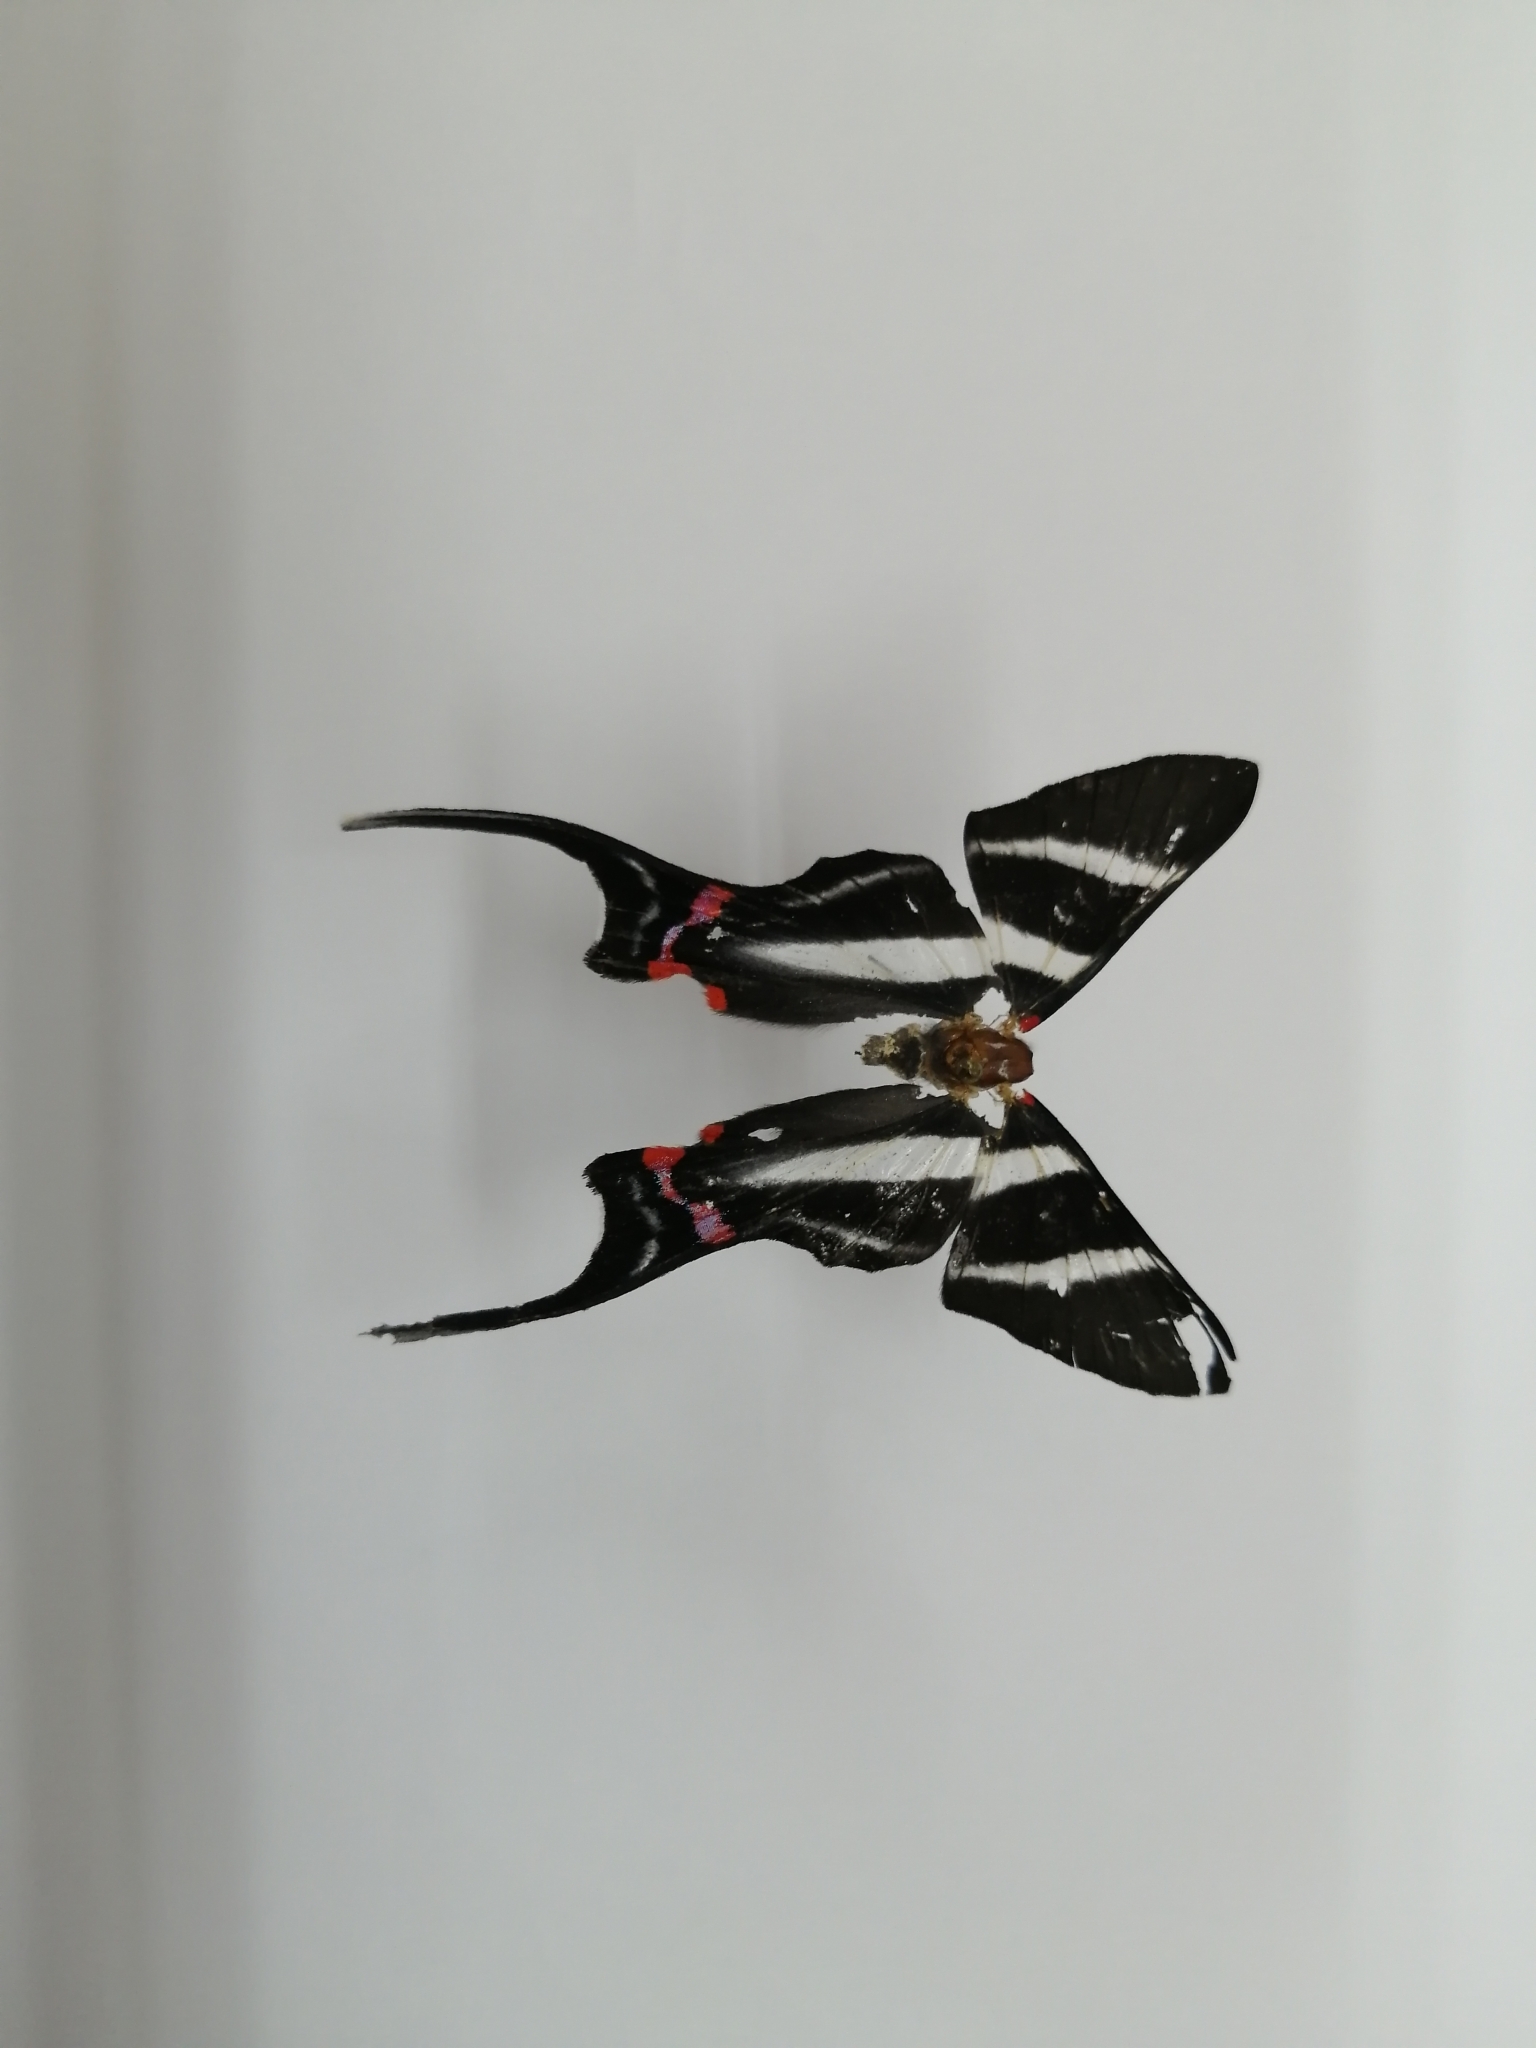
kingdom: Animalia
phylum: Arthropoda
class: Insecta
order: Lepidoptera
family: Riodinidae
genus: Rhetus
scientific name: Rhetus arcius
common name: Long-tailed metalmark
